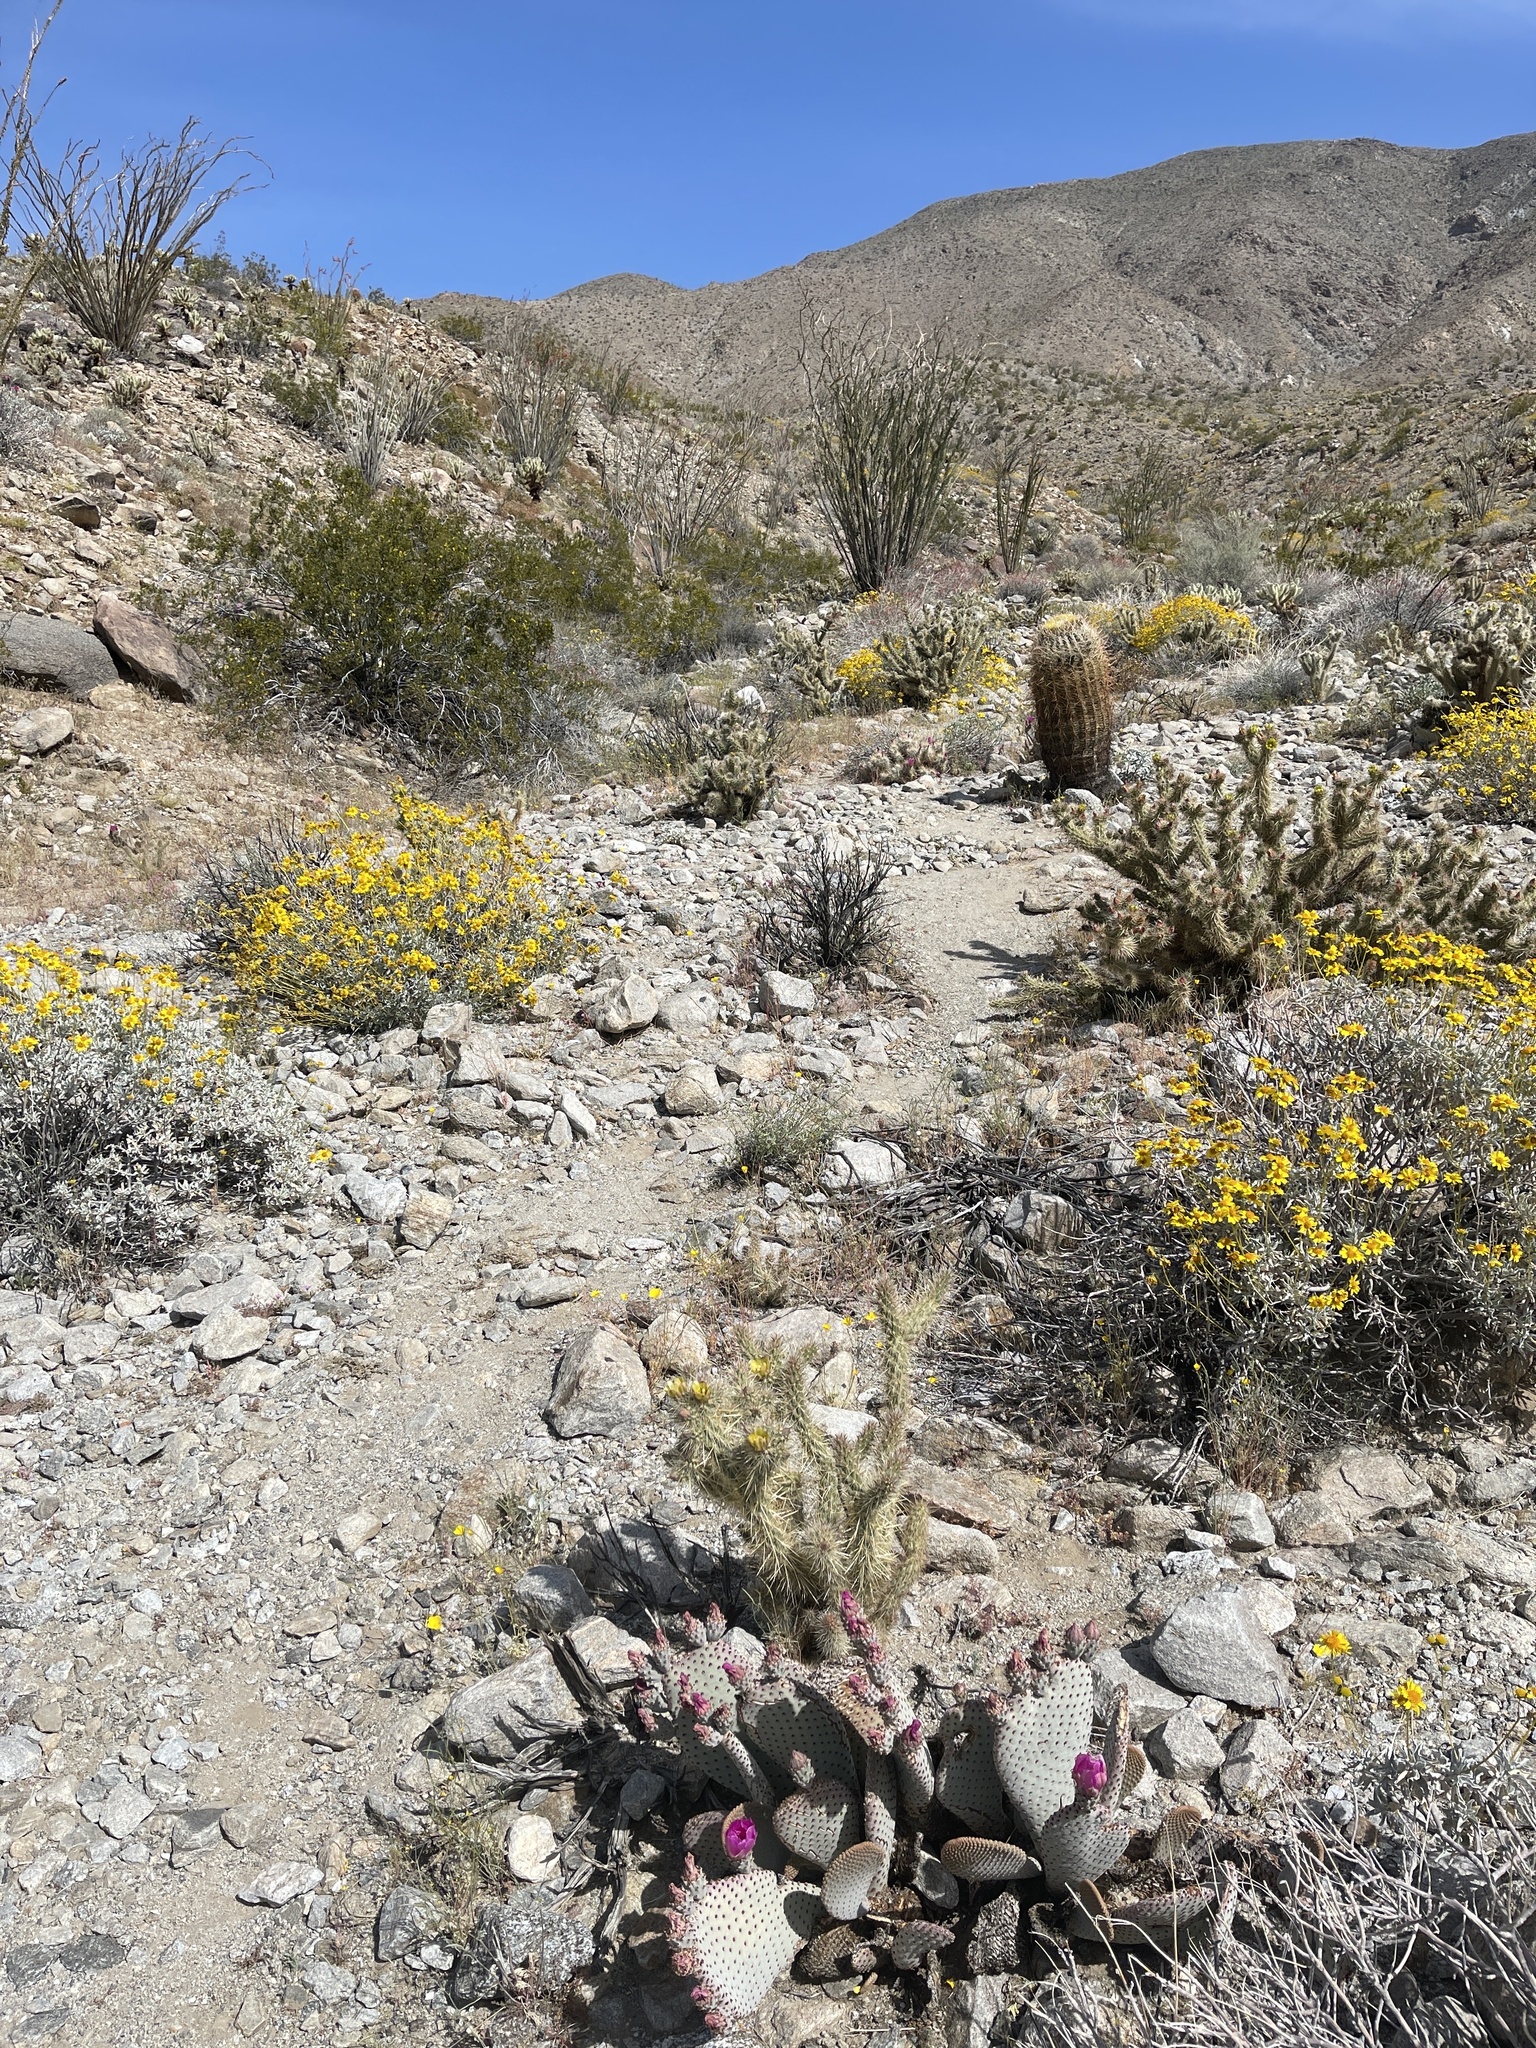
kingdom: Plantae
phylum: Tracheophyta
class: Magnoliopsida
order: Caryophyllales
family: Cactaceae
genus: Opuntia
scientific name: Opuntia basilaris
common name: Beavertail prickly-pear
